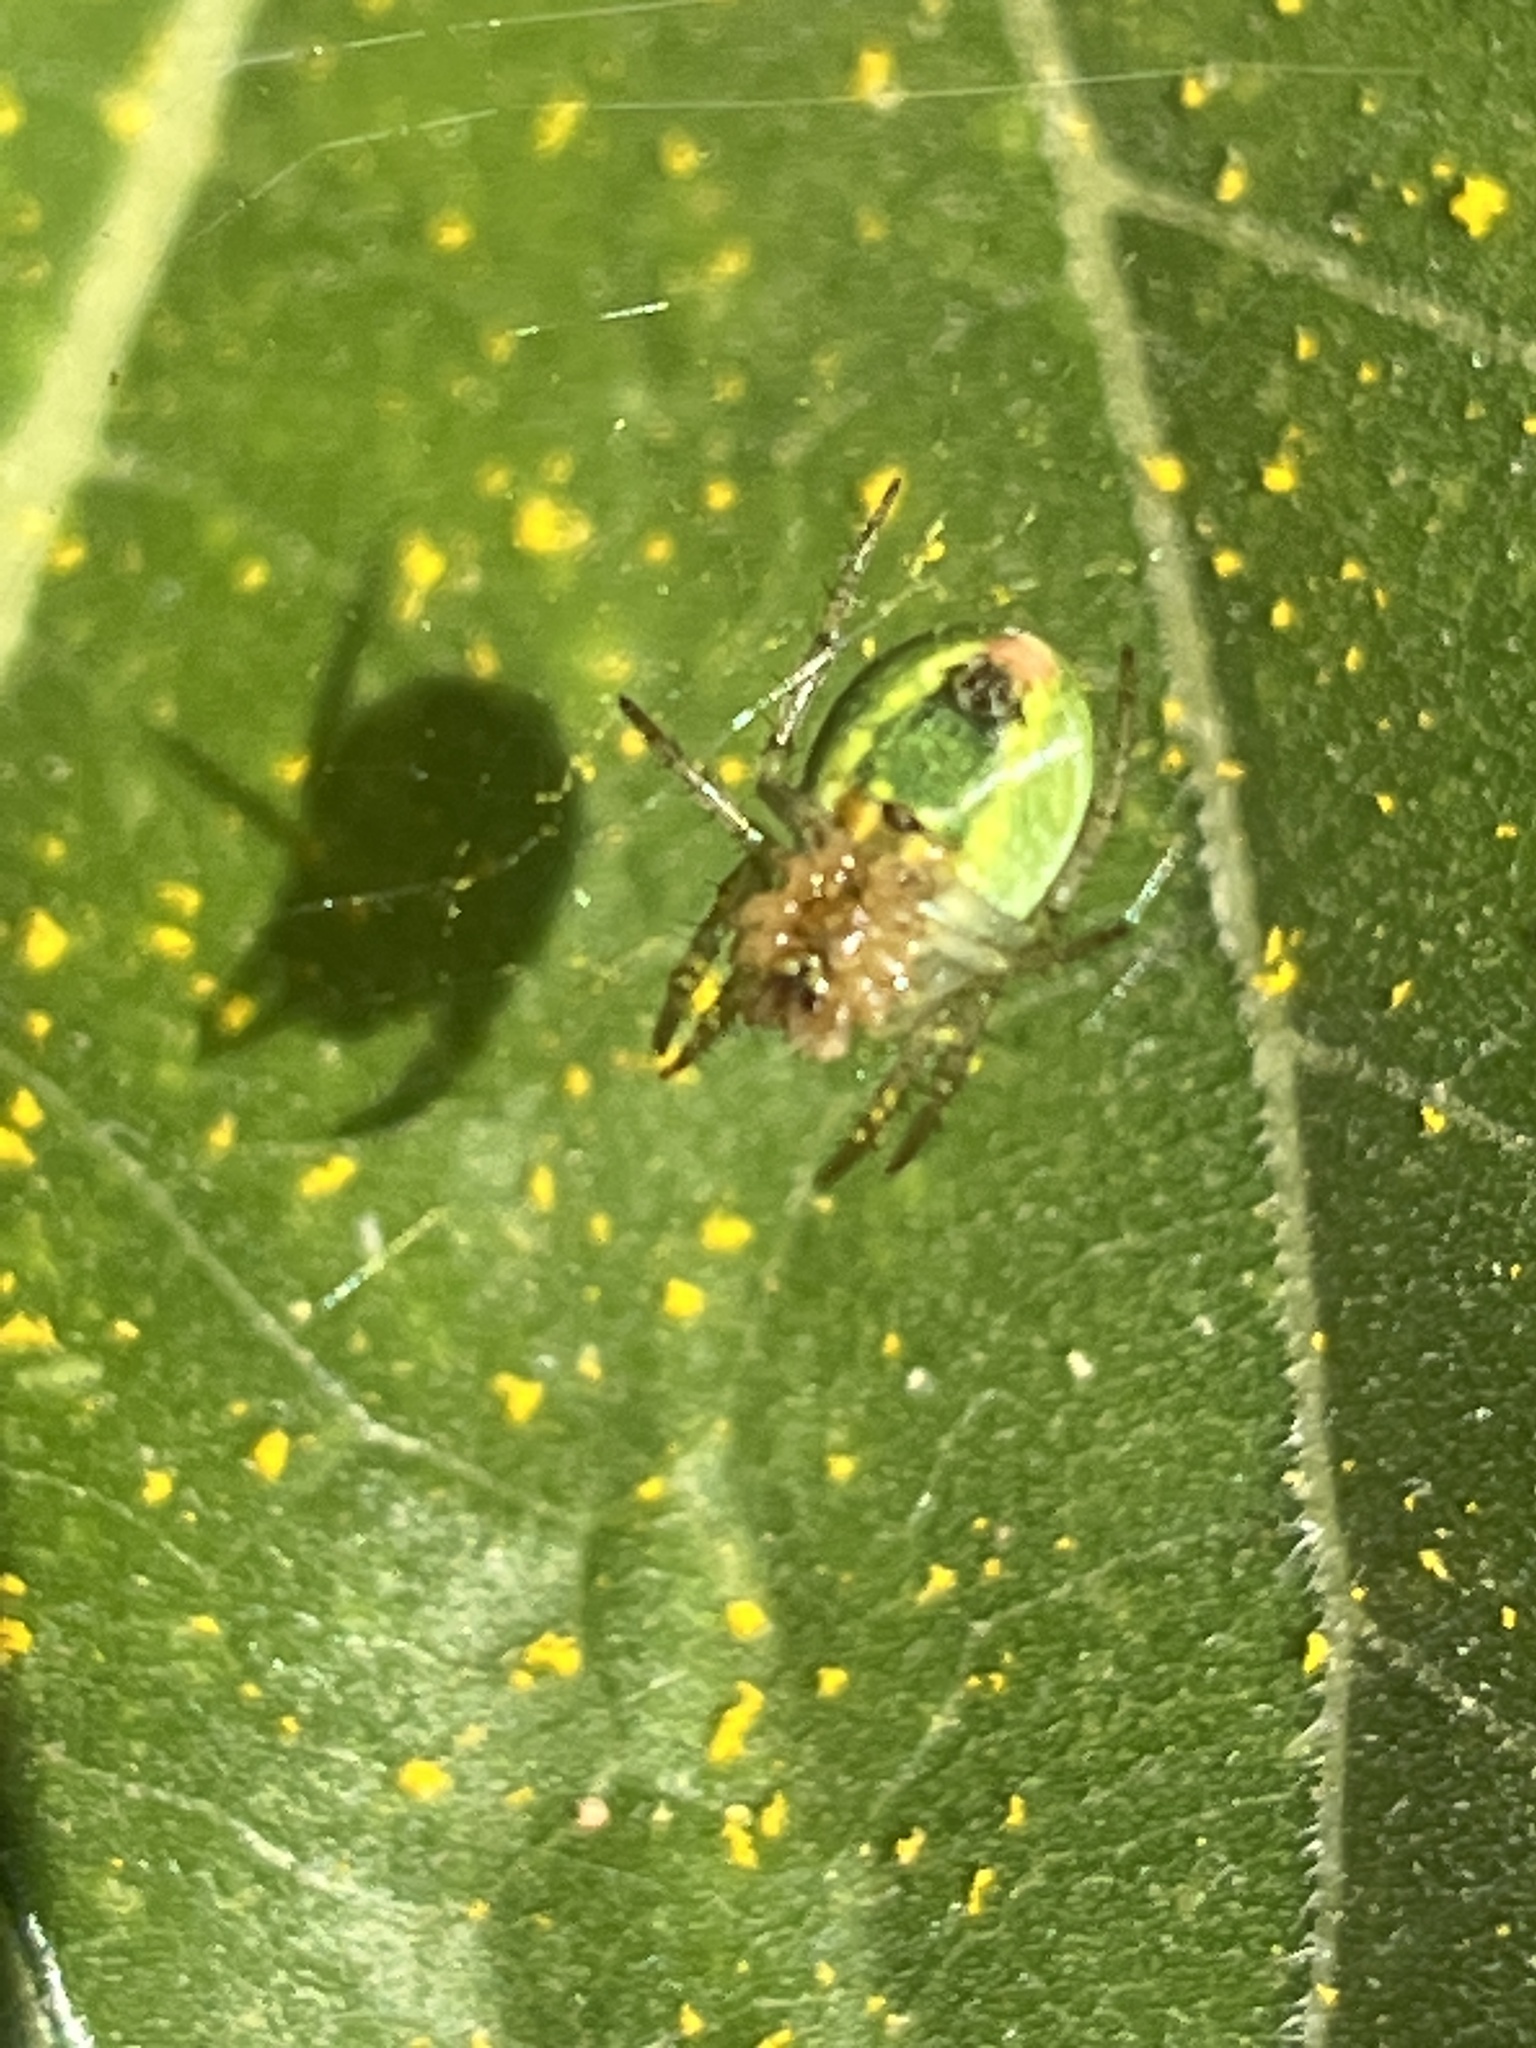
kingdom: Animalia
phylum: Arthropoda
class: Arachnida
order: Araneae
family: Araneidae
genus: Araniella
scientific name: Araniella
